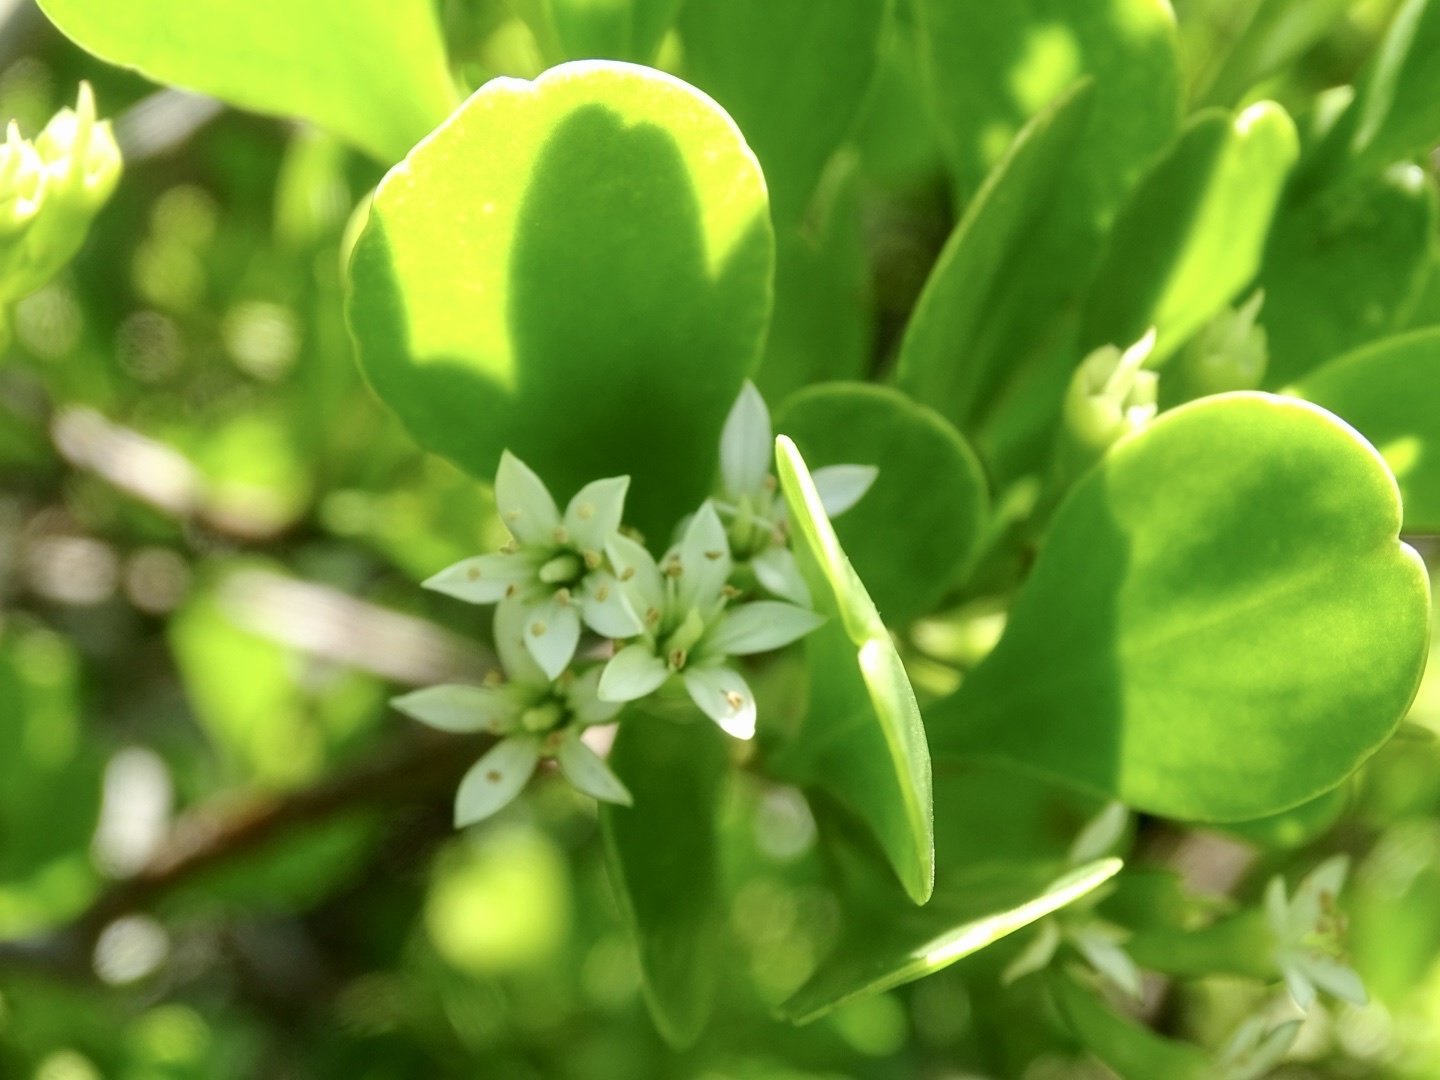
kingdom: Plantae
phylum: Tracheophyta
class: Magnoliopsida
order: Myrtales
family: Combretaceae
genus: Lumnitzera
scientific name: Lumnitzera racemosa
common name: White-flowered black mangrove
